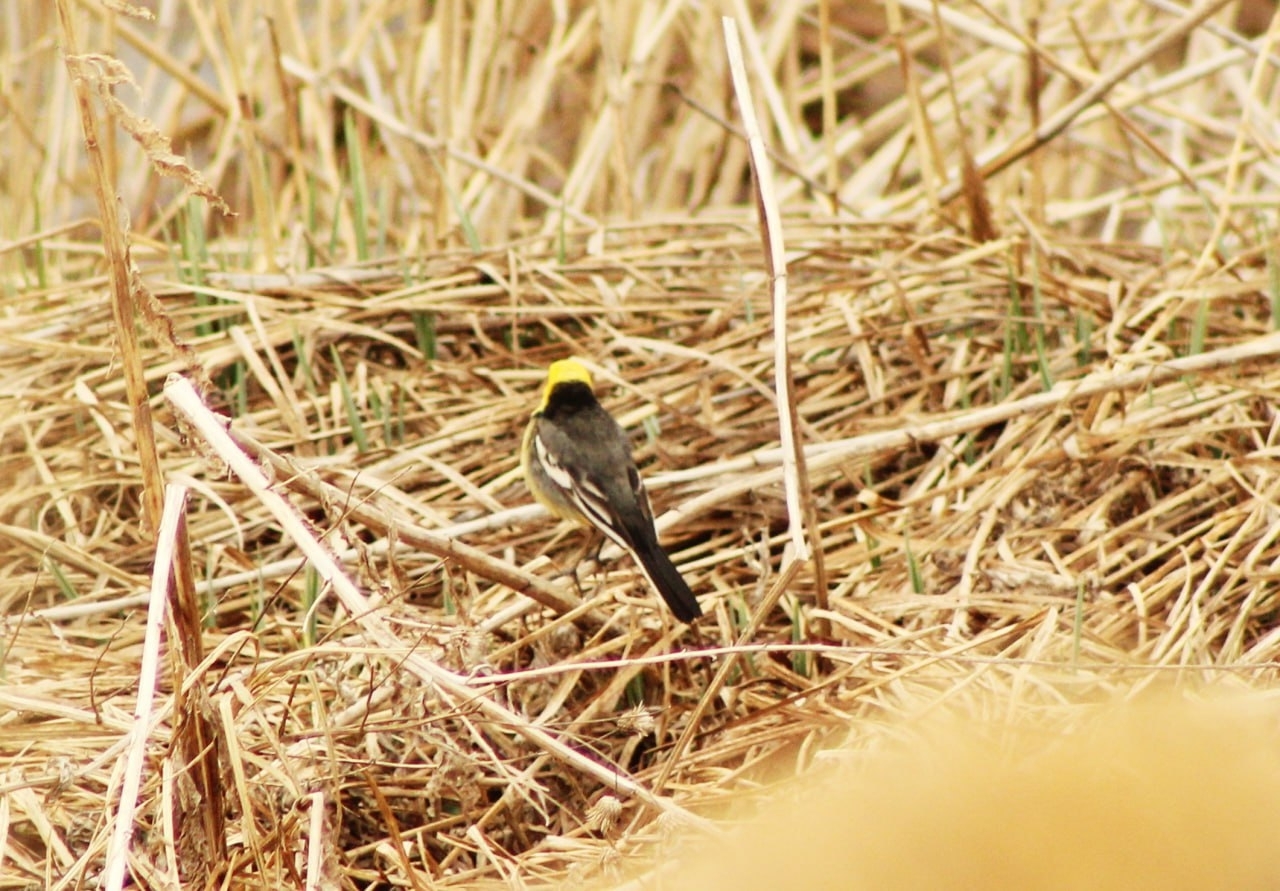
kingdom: Animalia
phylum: Chordata
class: Aves
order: Passeriformes
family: Motacillidae
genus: Motacilla
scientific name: Motacilla citreola
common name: Citrine wagtail
